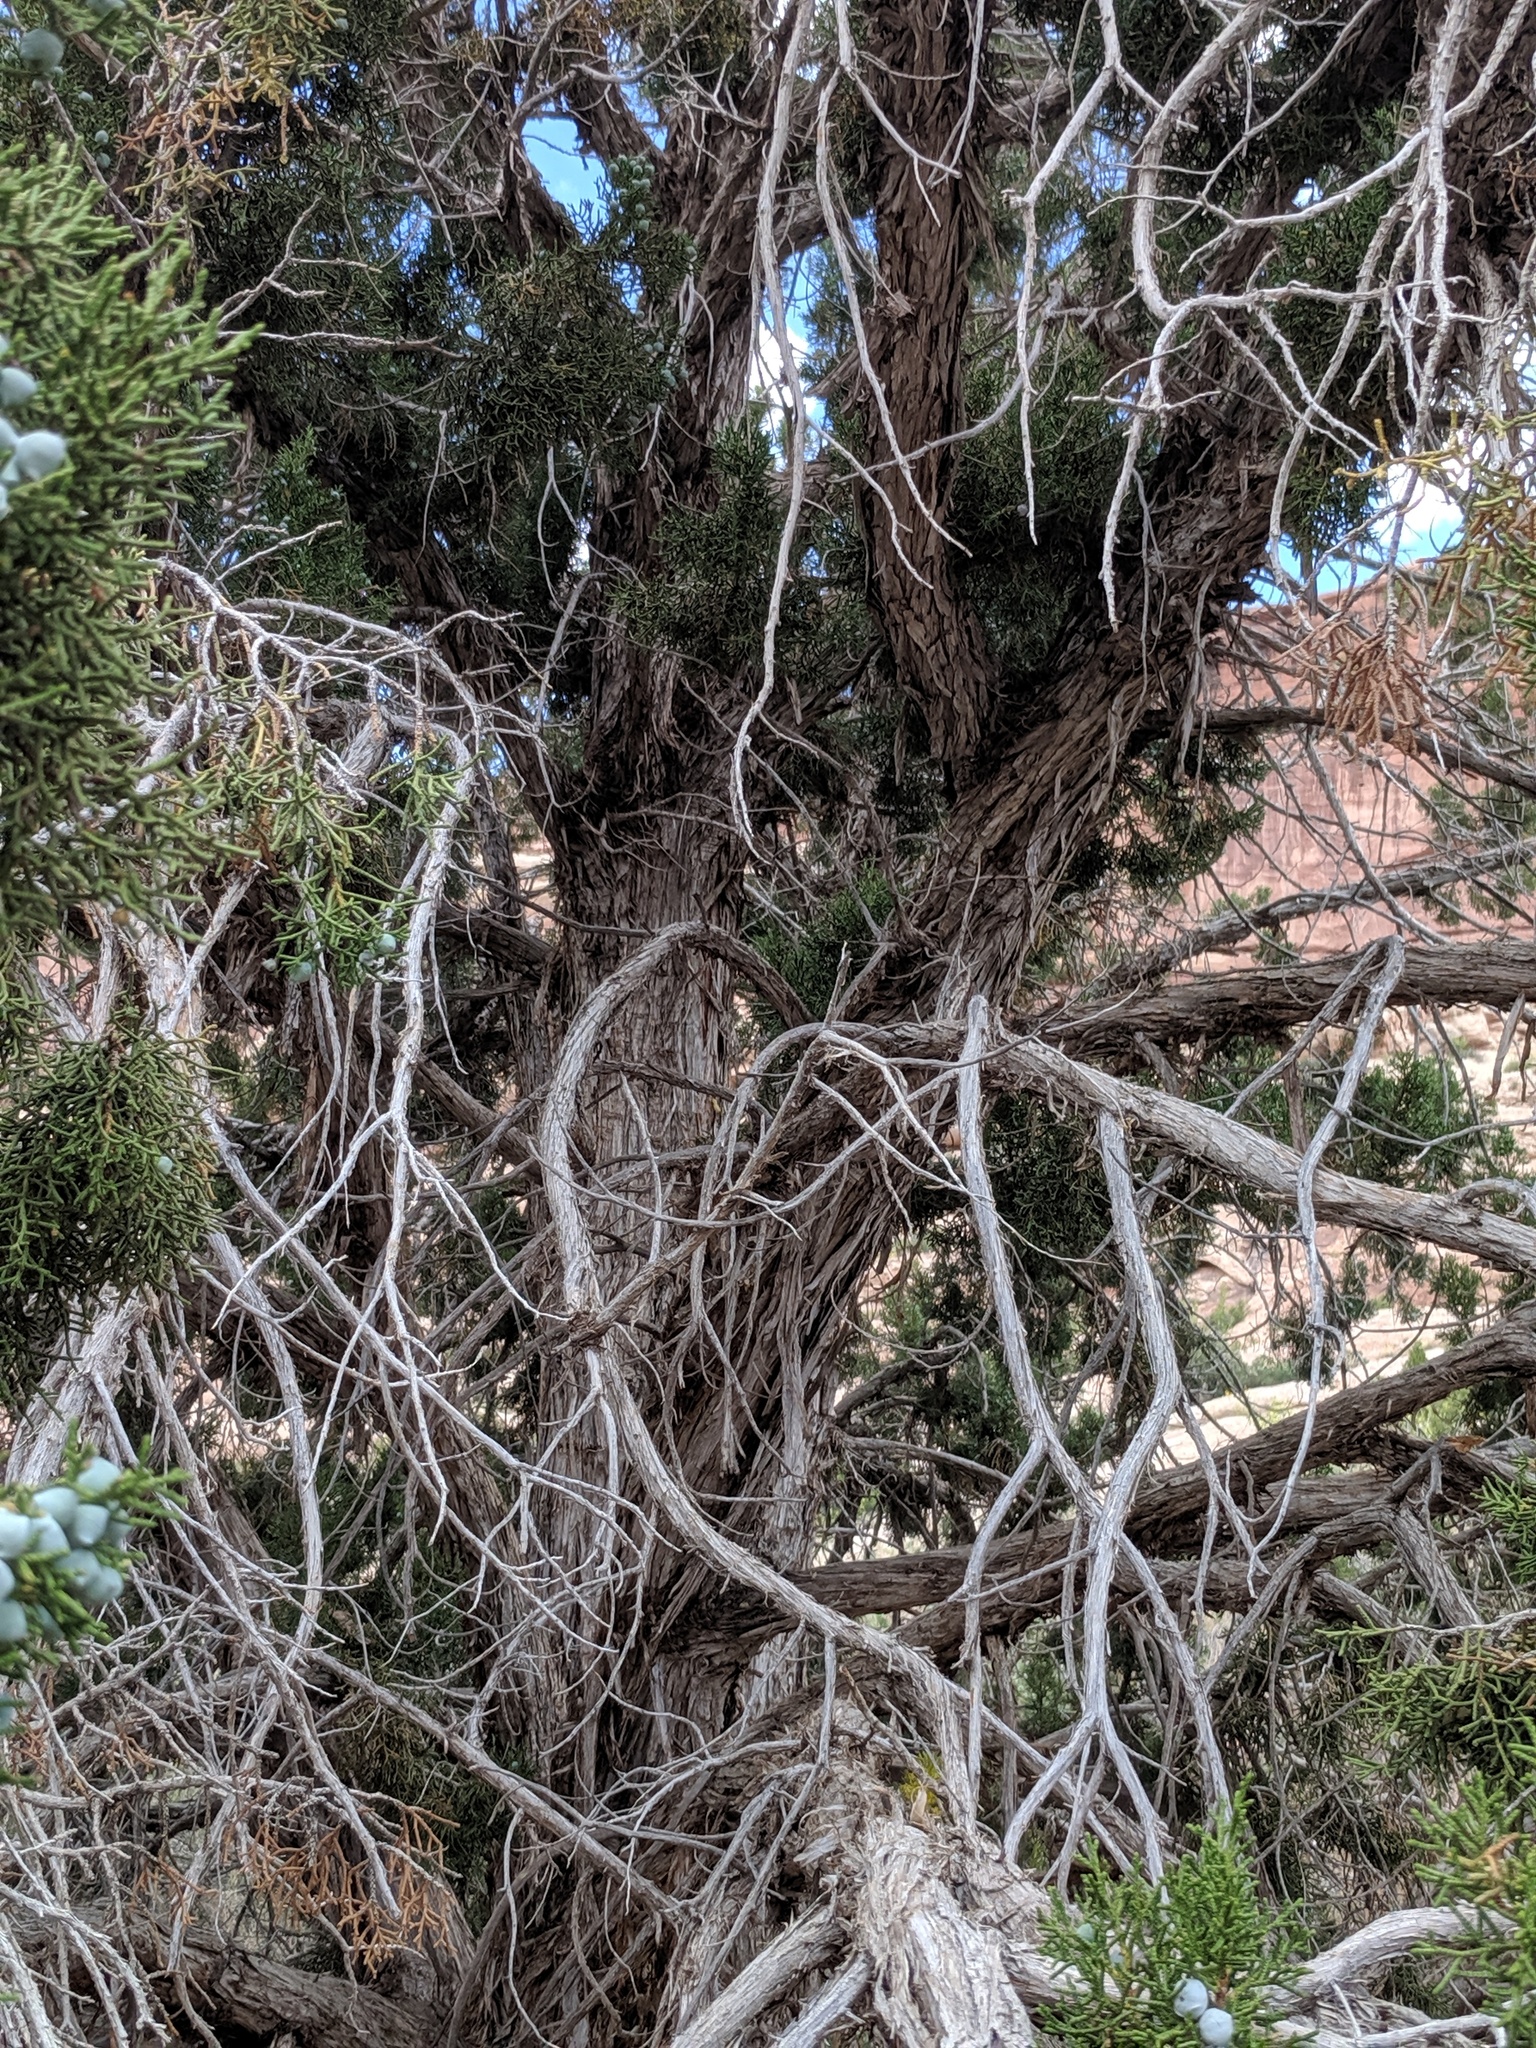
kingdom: Plantae
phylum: Tracheophyta
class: Pinopsida
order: Pinales
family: Cupressaceae
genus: Juniperus
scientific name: Juniperus osteosperma
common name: Utah juniper
